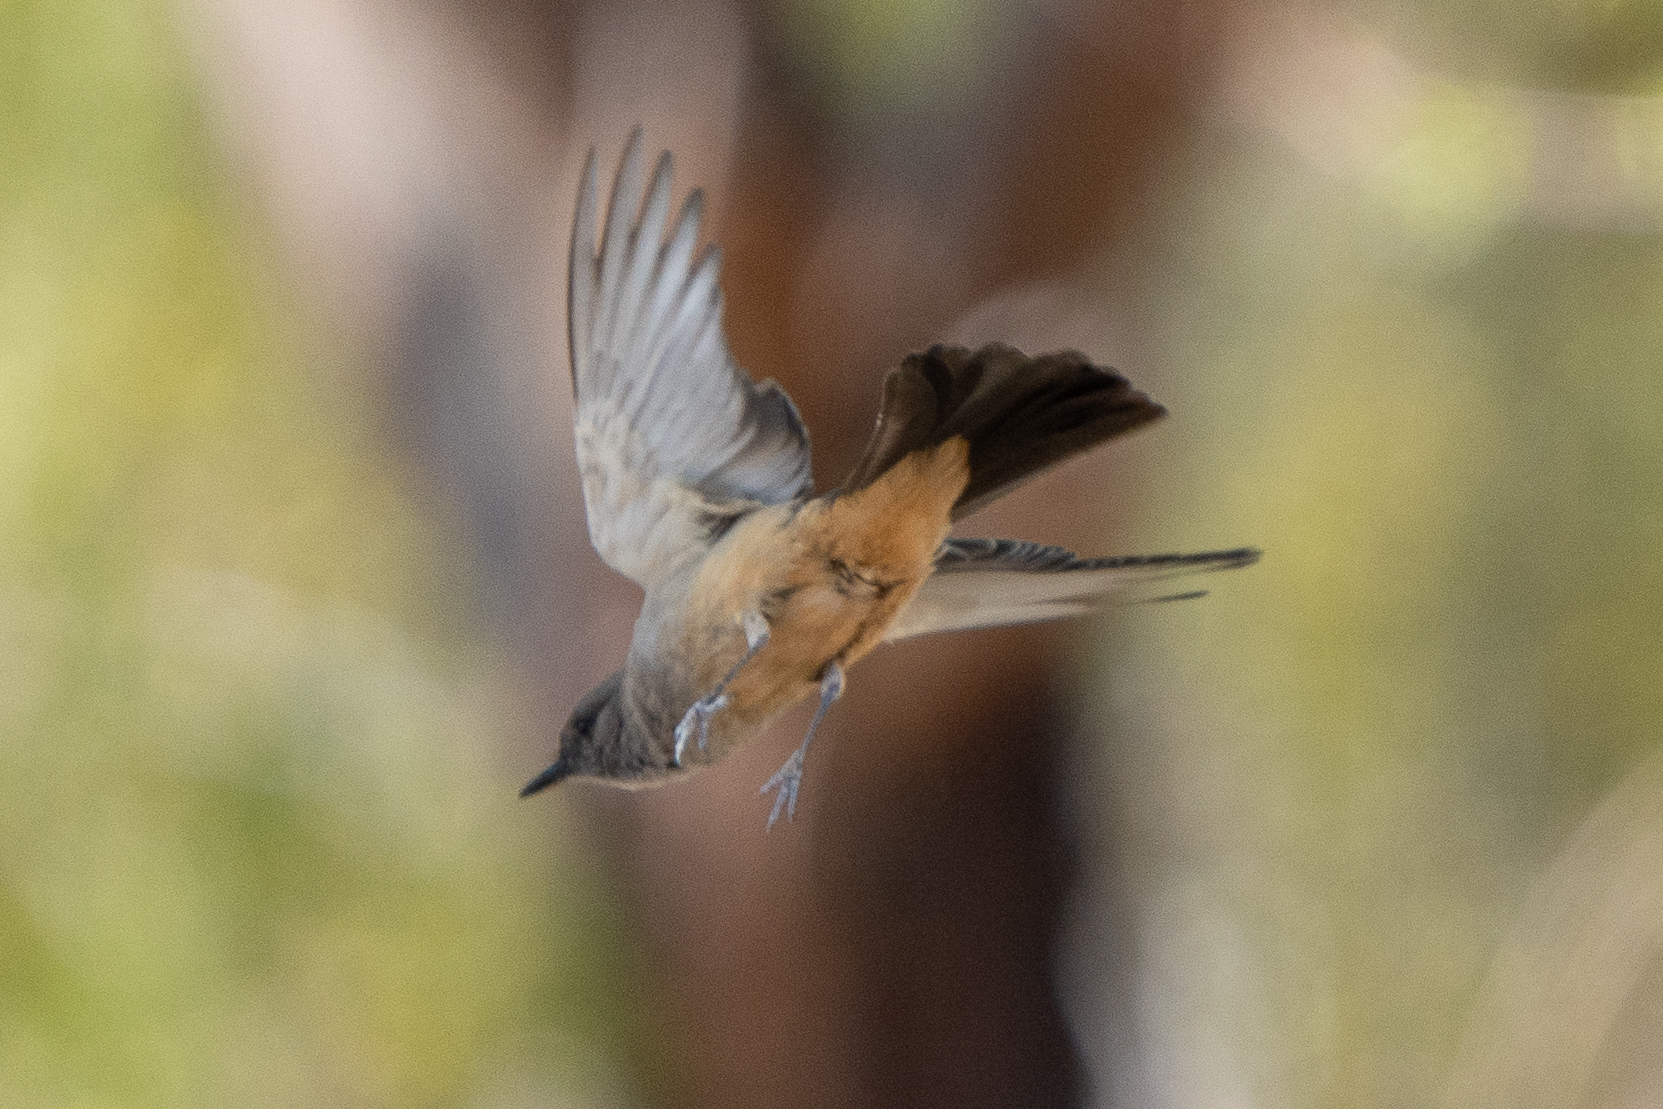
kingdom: Animalia
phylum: Chordata
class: Aves
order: Passeriformes
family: Tyrannidae
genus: Sayornis
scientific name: Sayornis saya
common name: Say's phoebe
